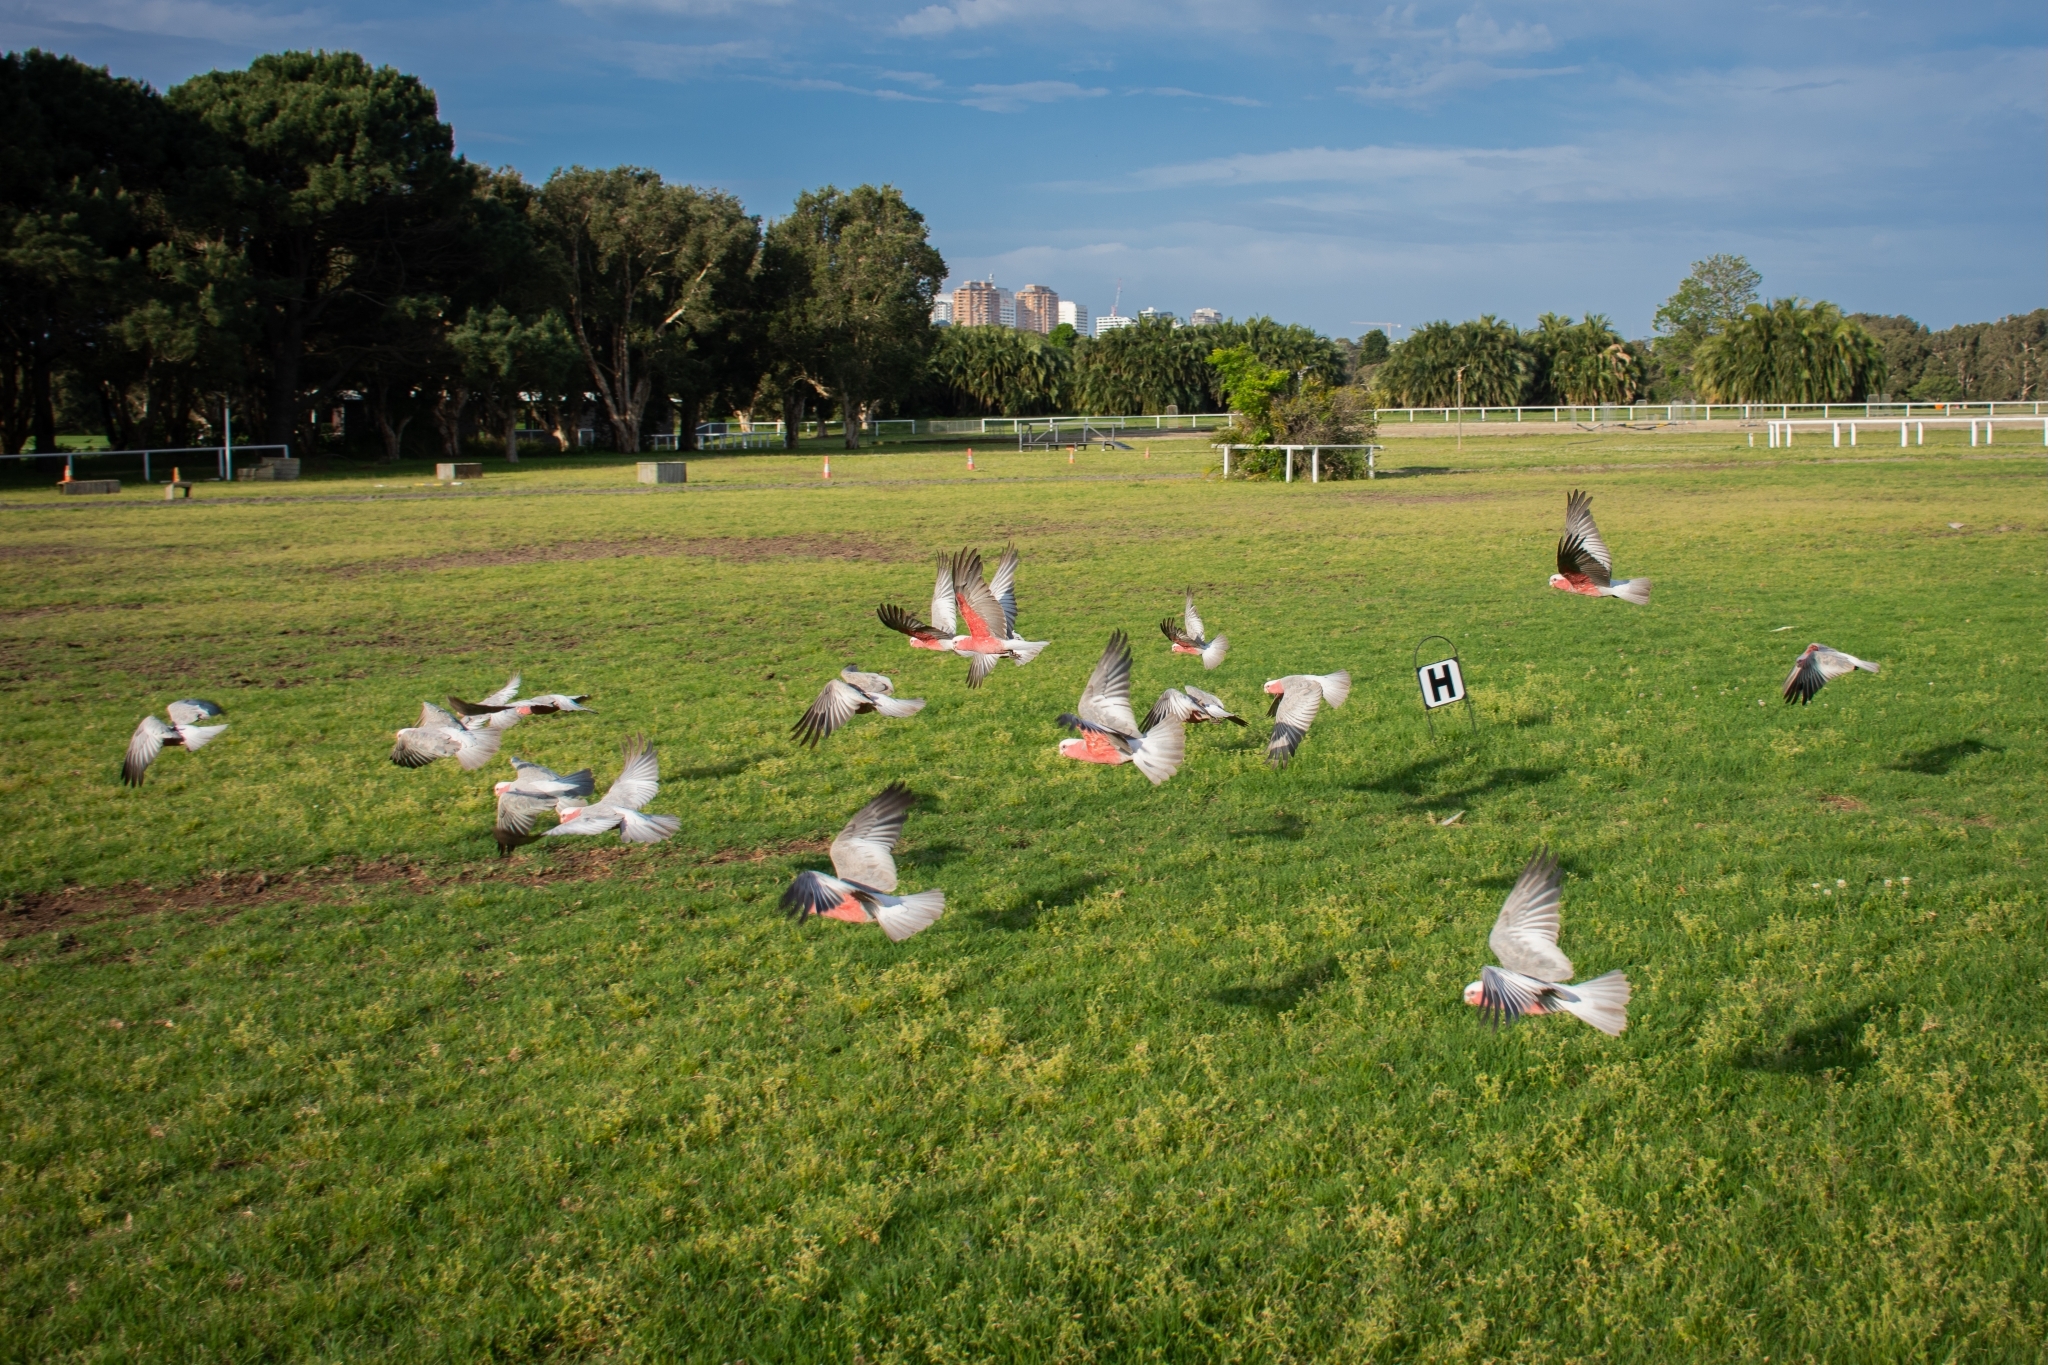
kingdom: Animalia
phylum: Chordata
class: Aves
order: Psittaciformes
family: Psittacidae
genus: Eolophus
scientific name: Eolophus roseicapilla
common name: Galah
